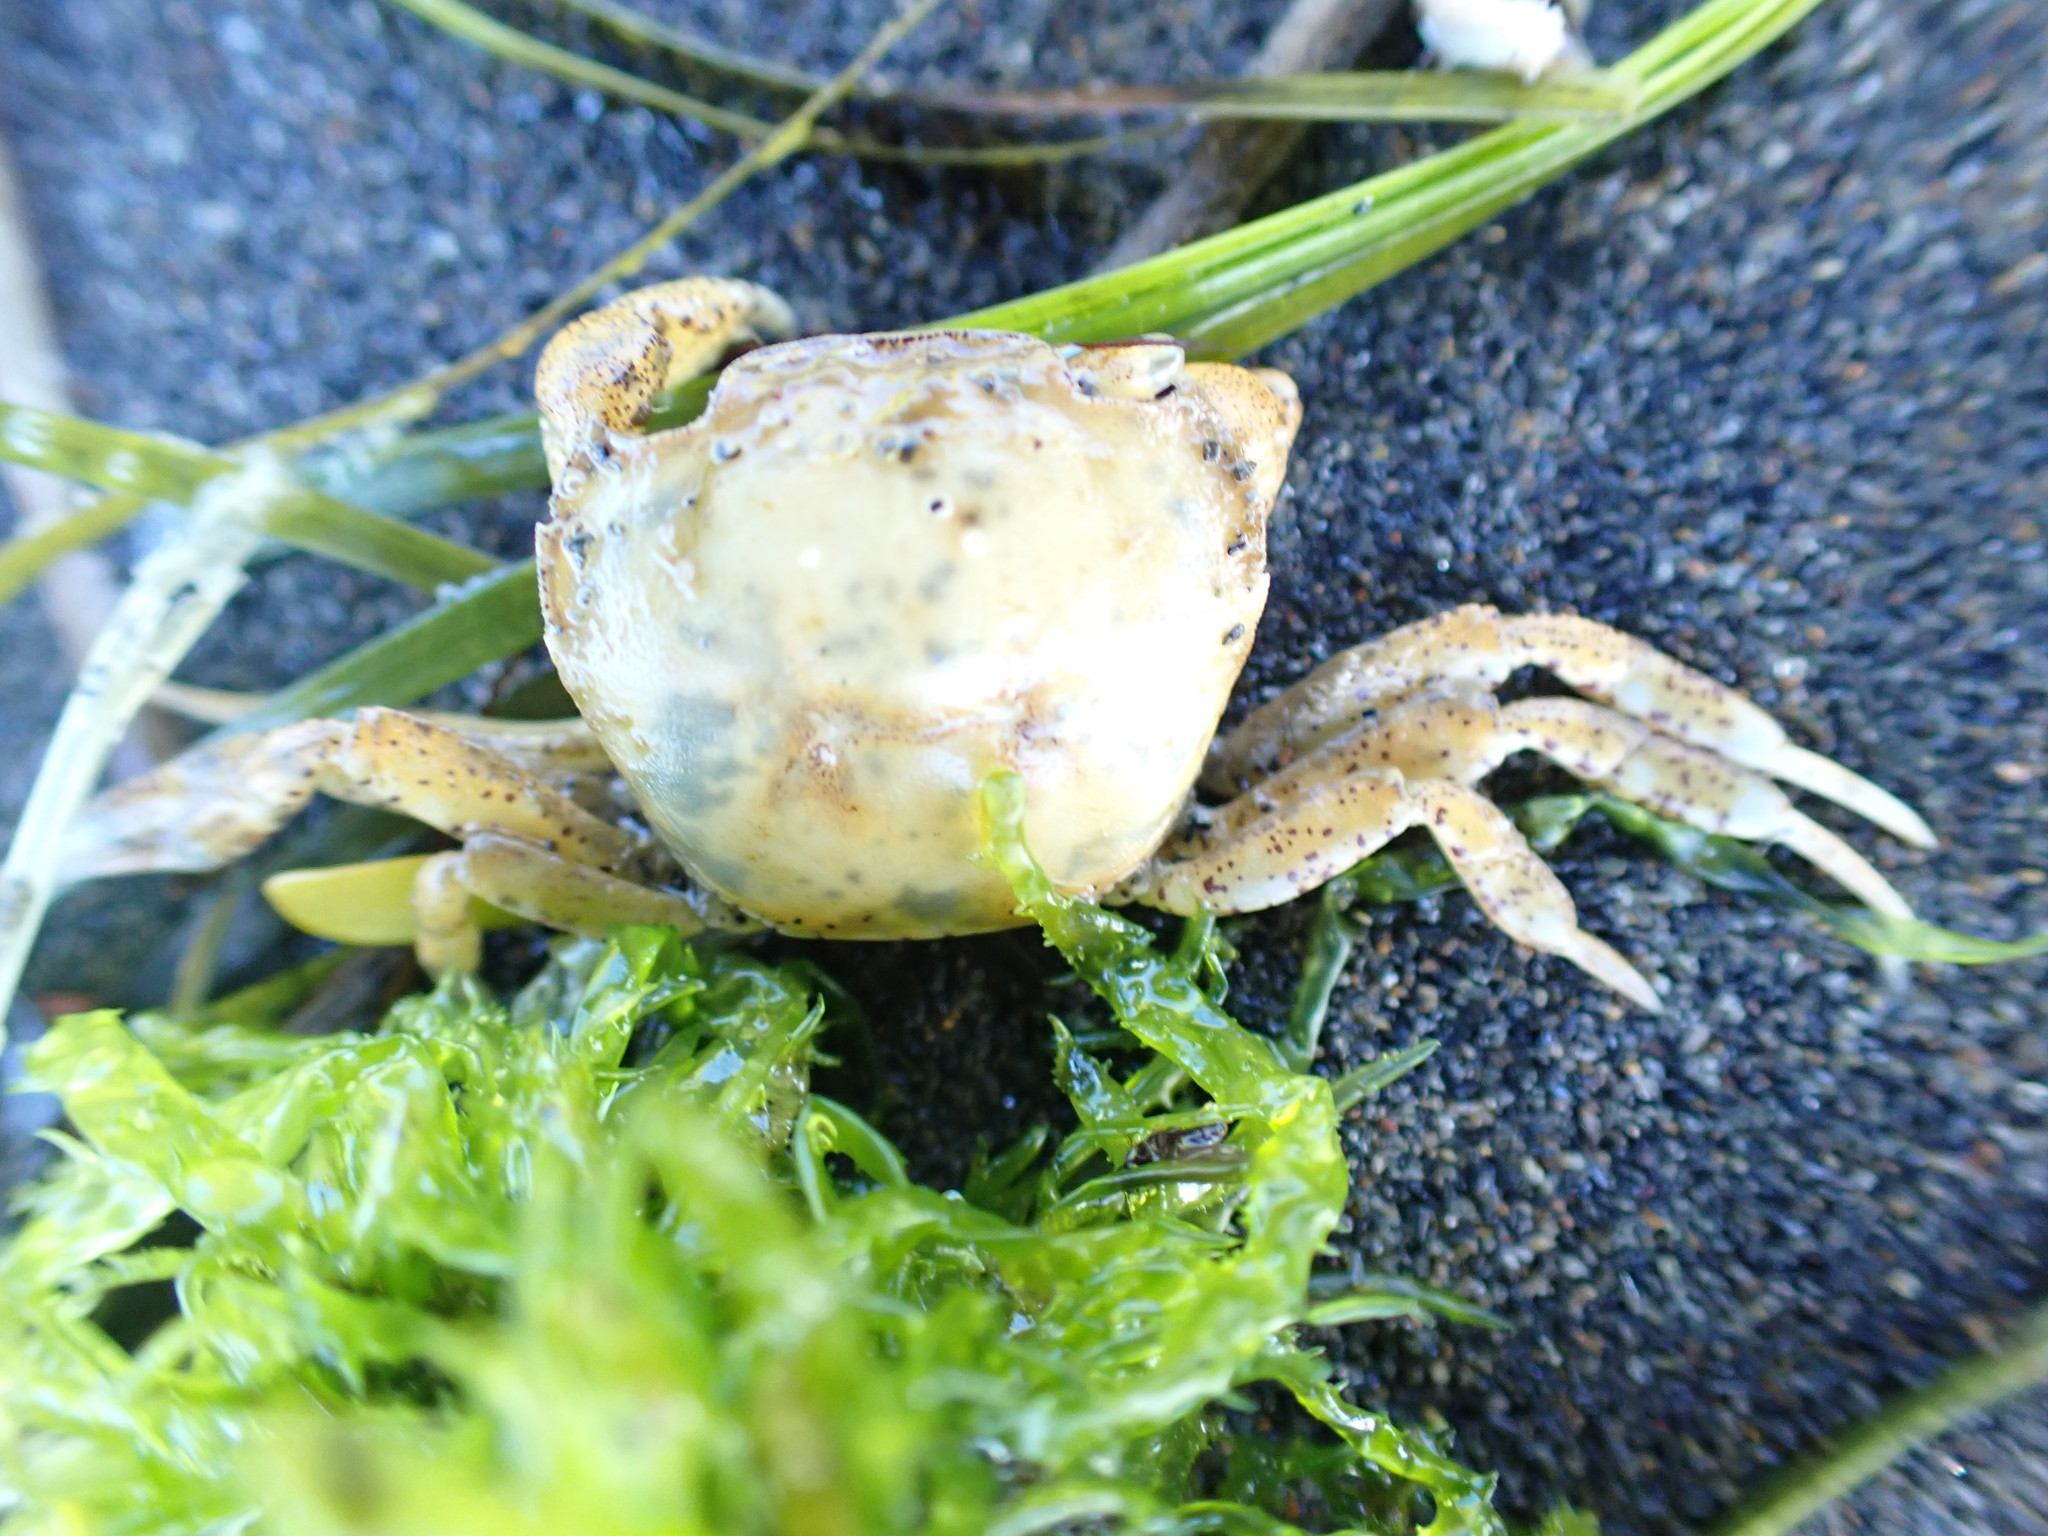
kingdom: Animalia
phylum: Arthropoda
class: Malacostraca
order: Decapoda
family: Varunidae
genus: Hemigrapsus
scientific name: Hemigrapsus crenulatus
